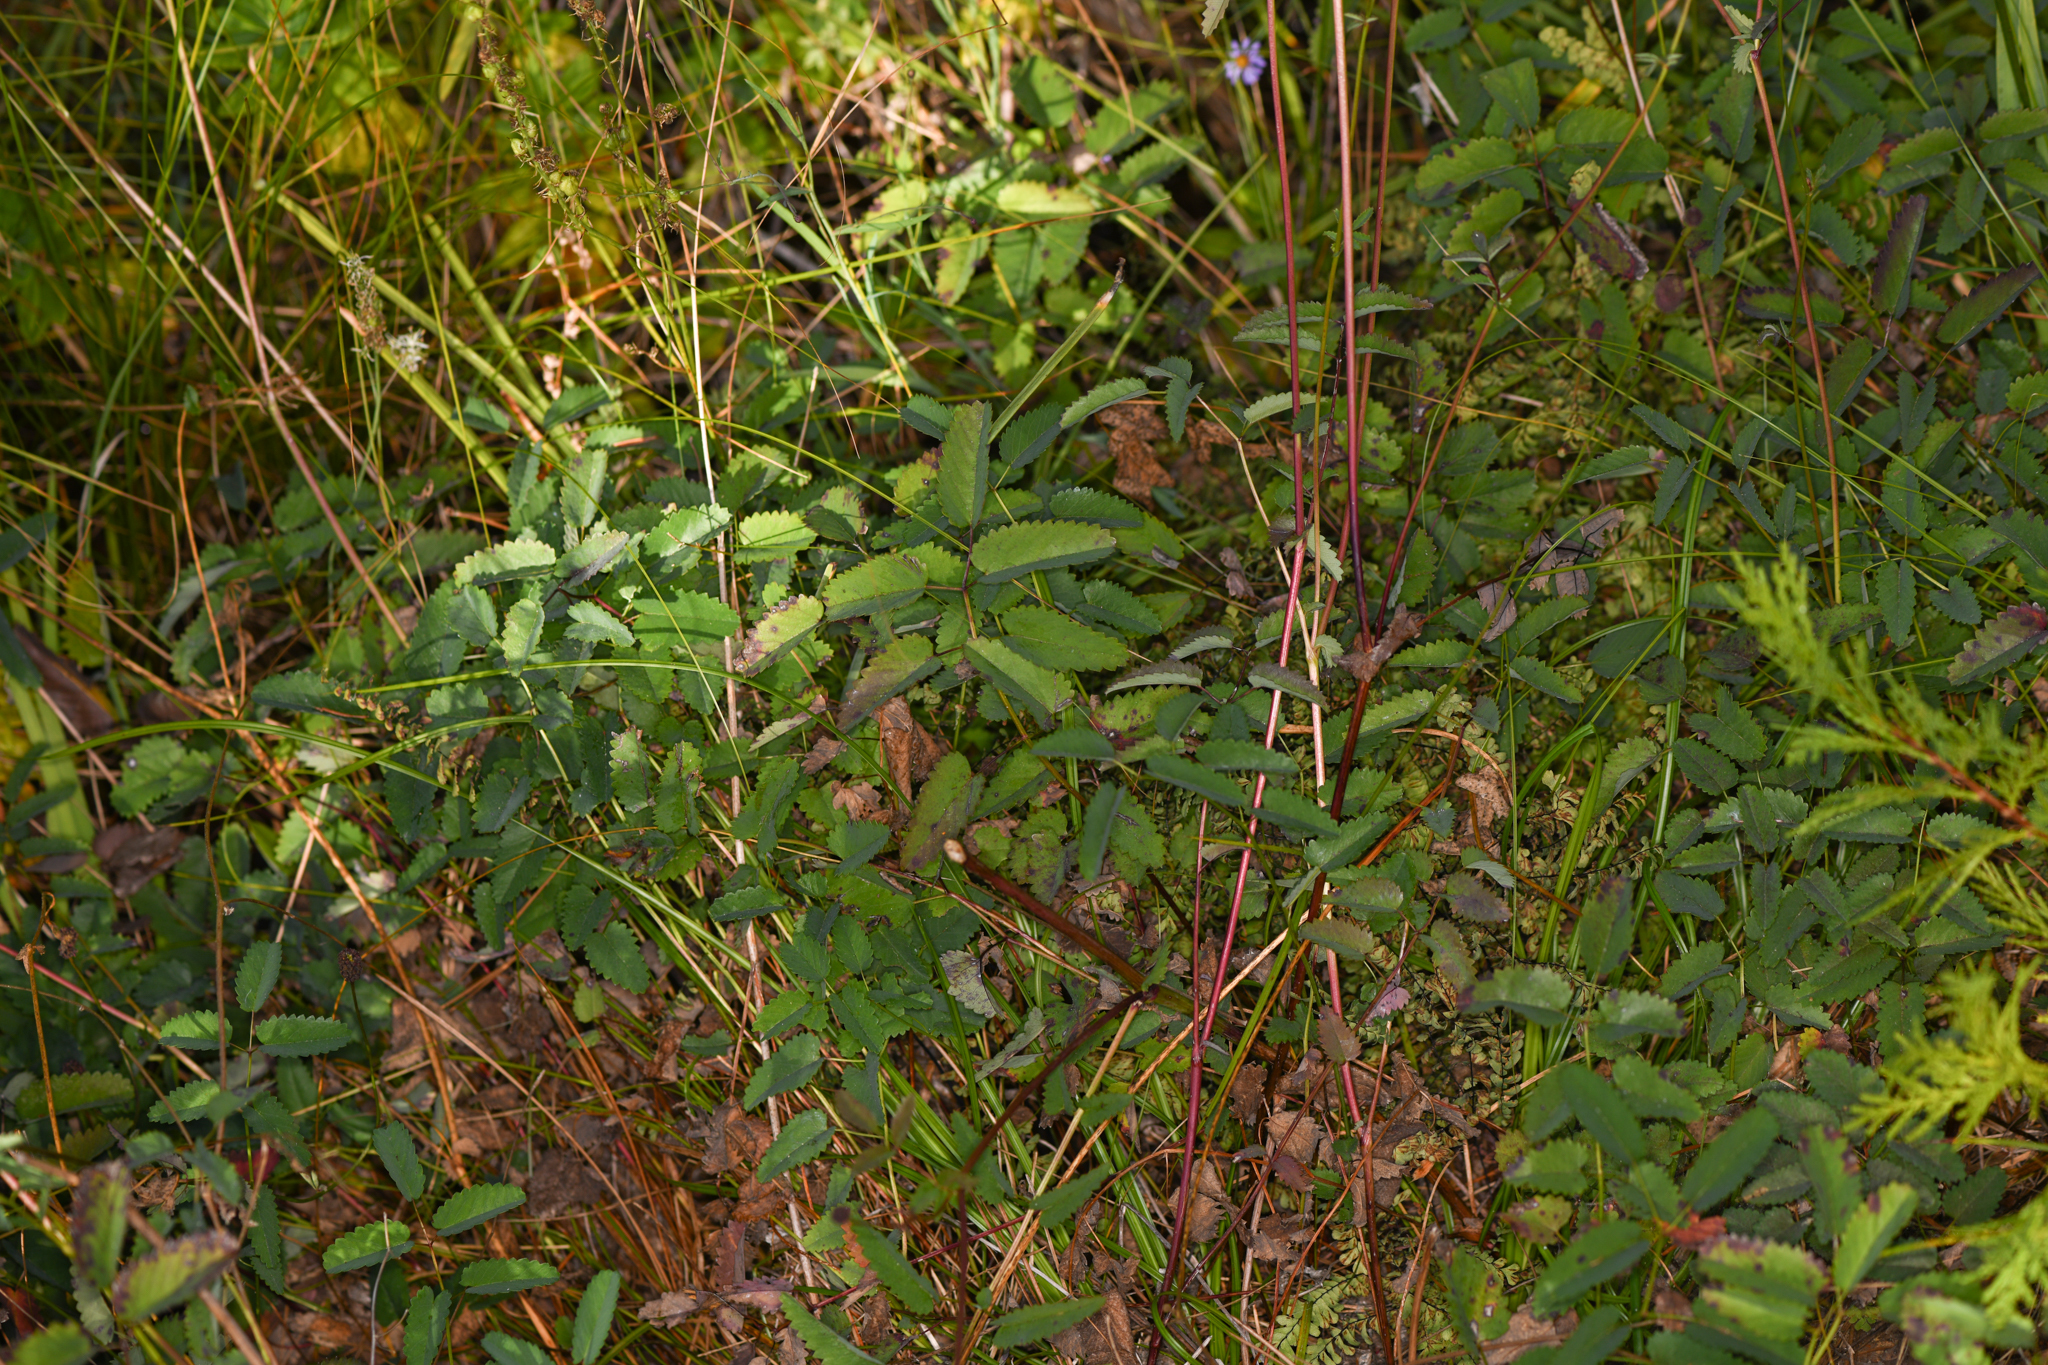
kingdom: Plantae
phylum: Tracheophyta
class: Magnoliopsida
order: Rosales
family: Rosaceae
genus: Sanguisorba
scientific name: Sanguisorba officinalis
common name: Great burnet
